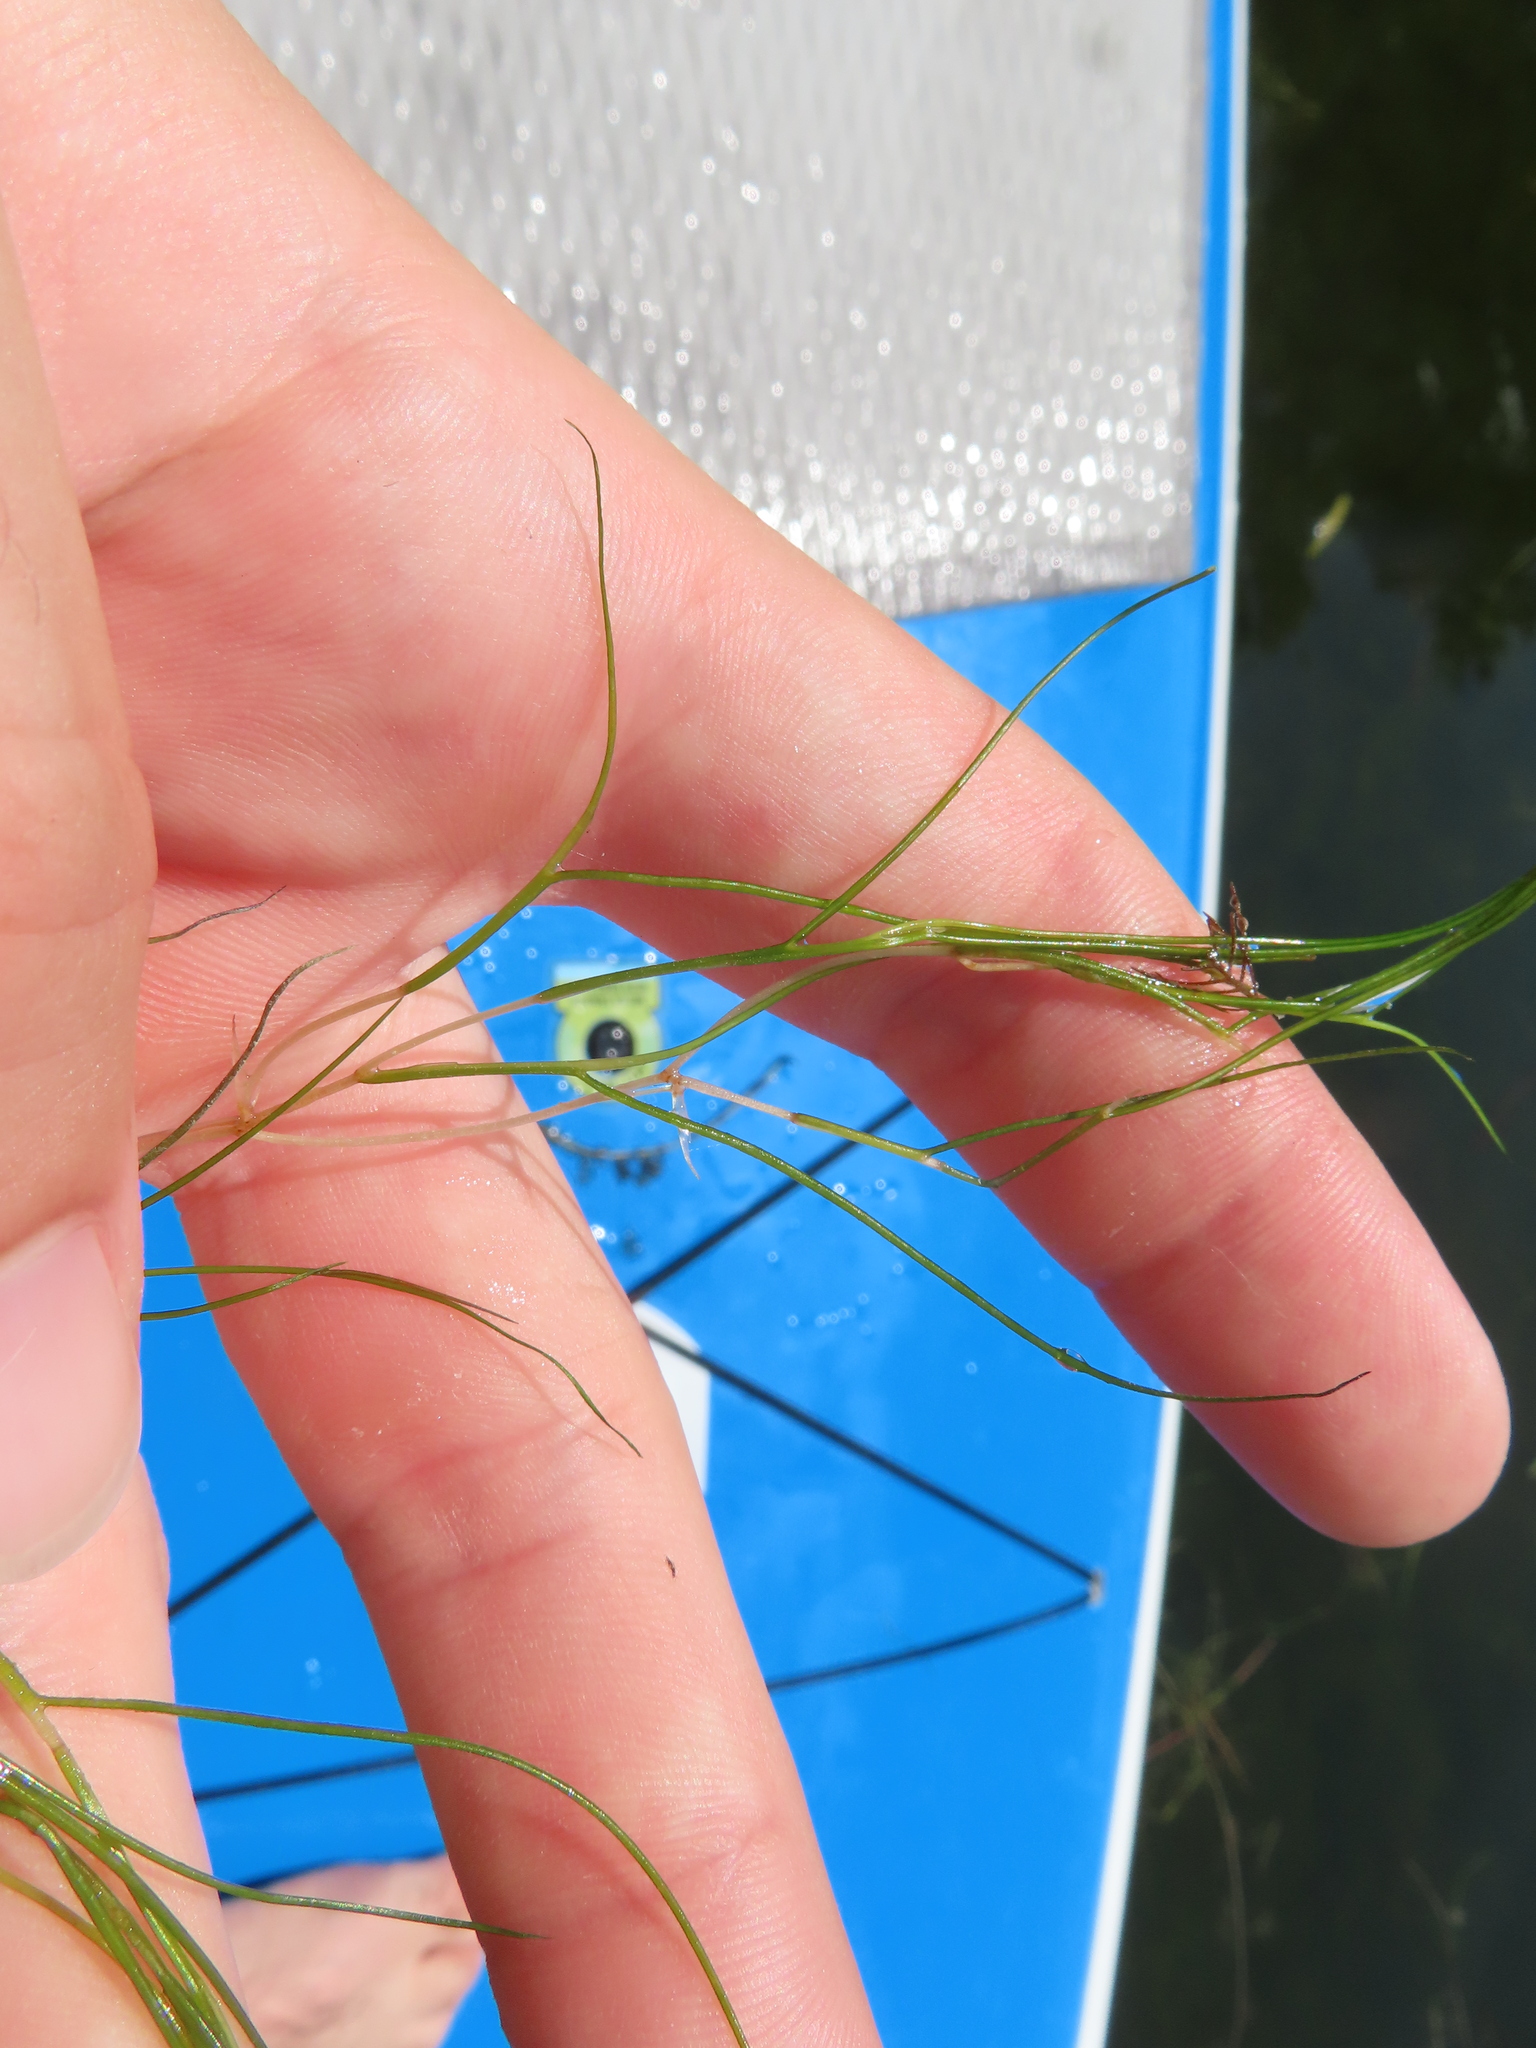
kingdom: Plantae
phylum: Tracheophyta
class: Liliopsida
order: Alismatales
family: Potamogetonaceae
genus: Stuckenia
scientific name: Stuckenia pectinata
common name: Sago pondweed
